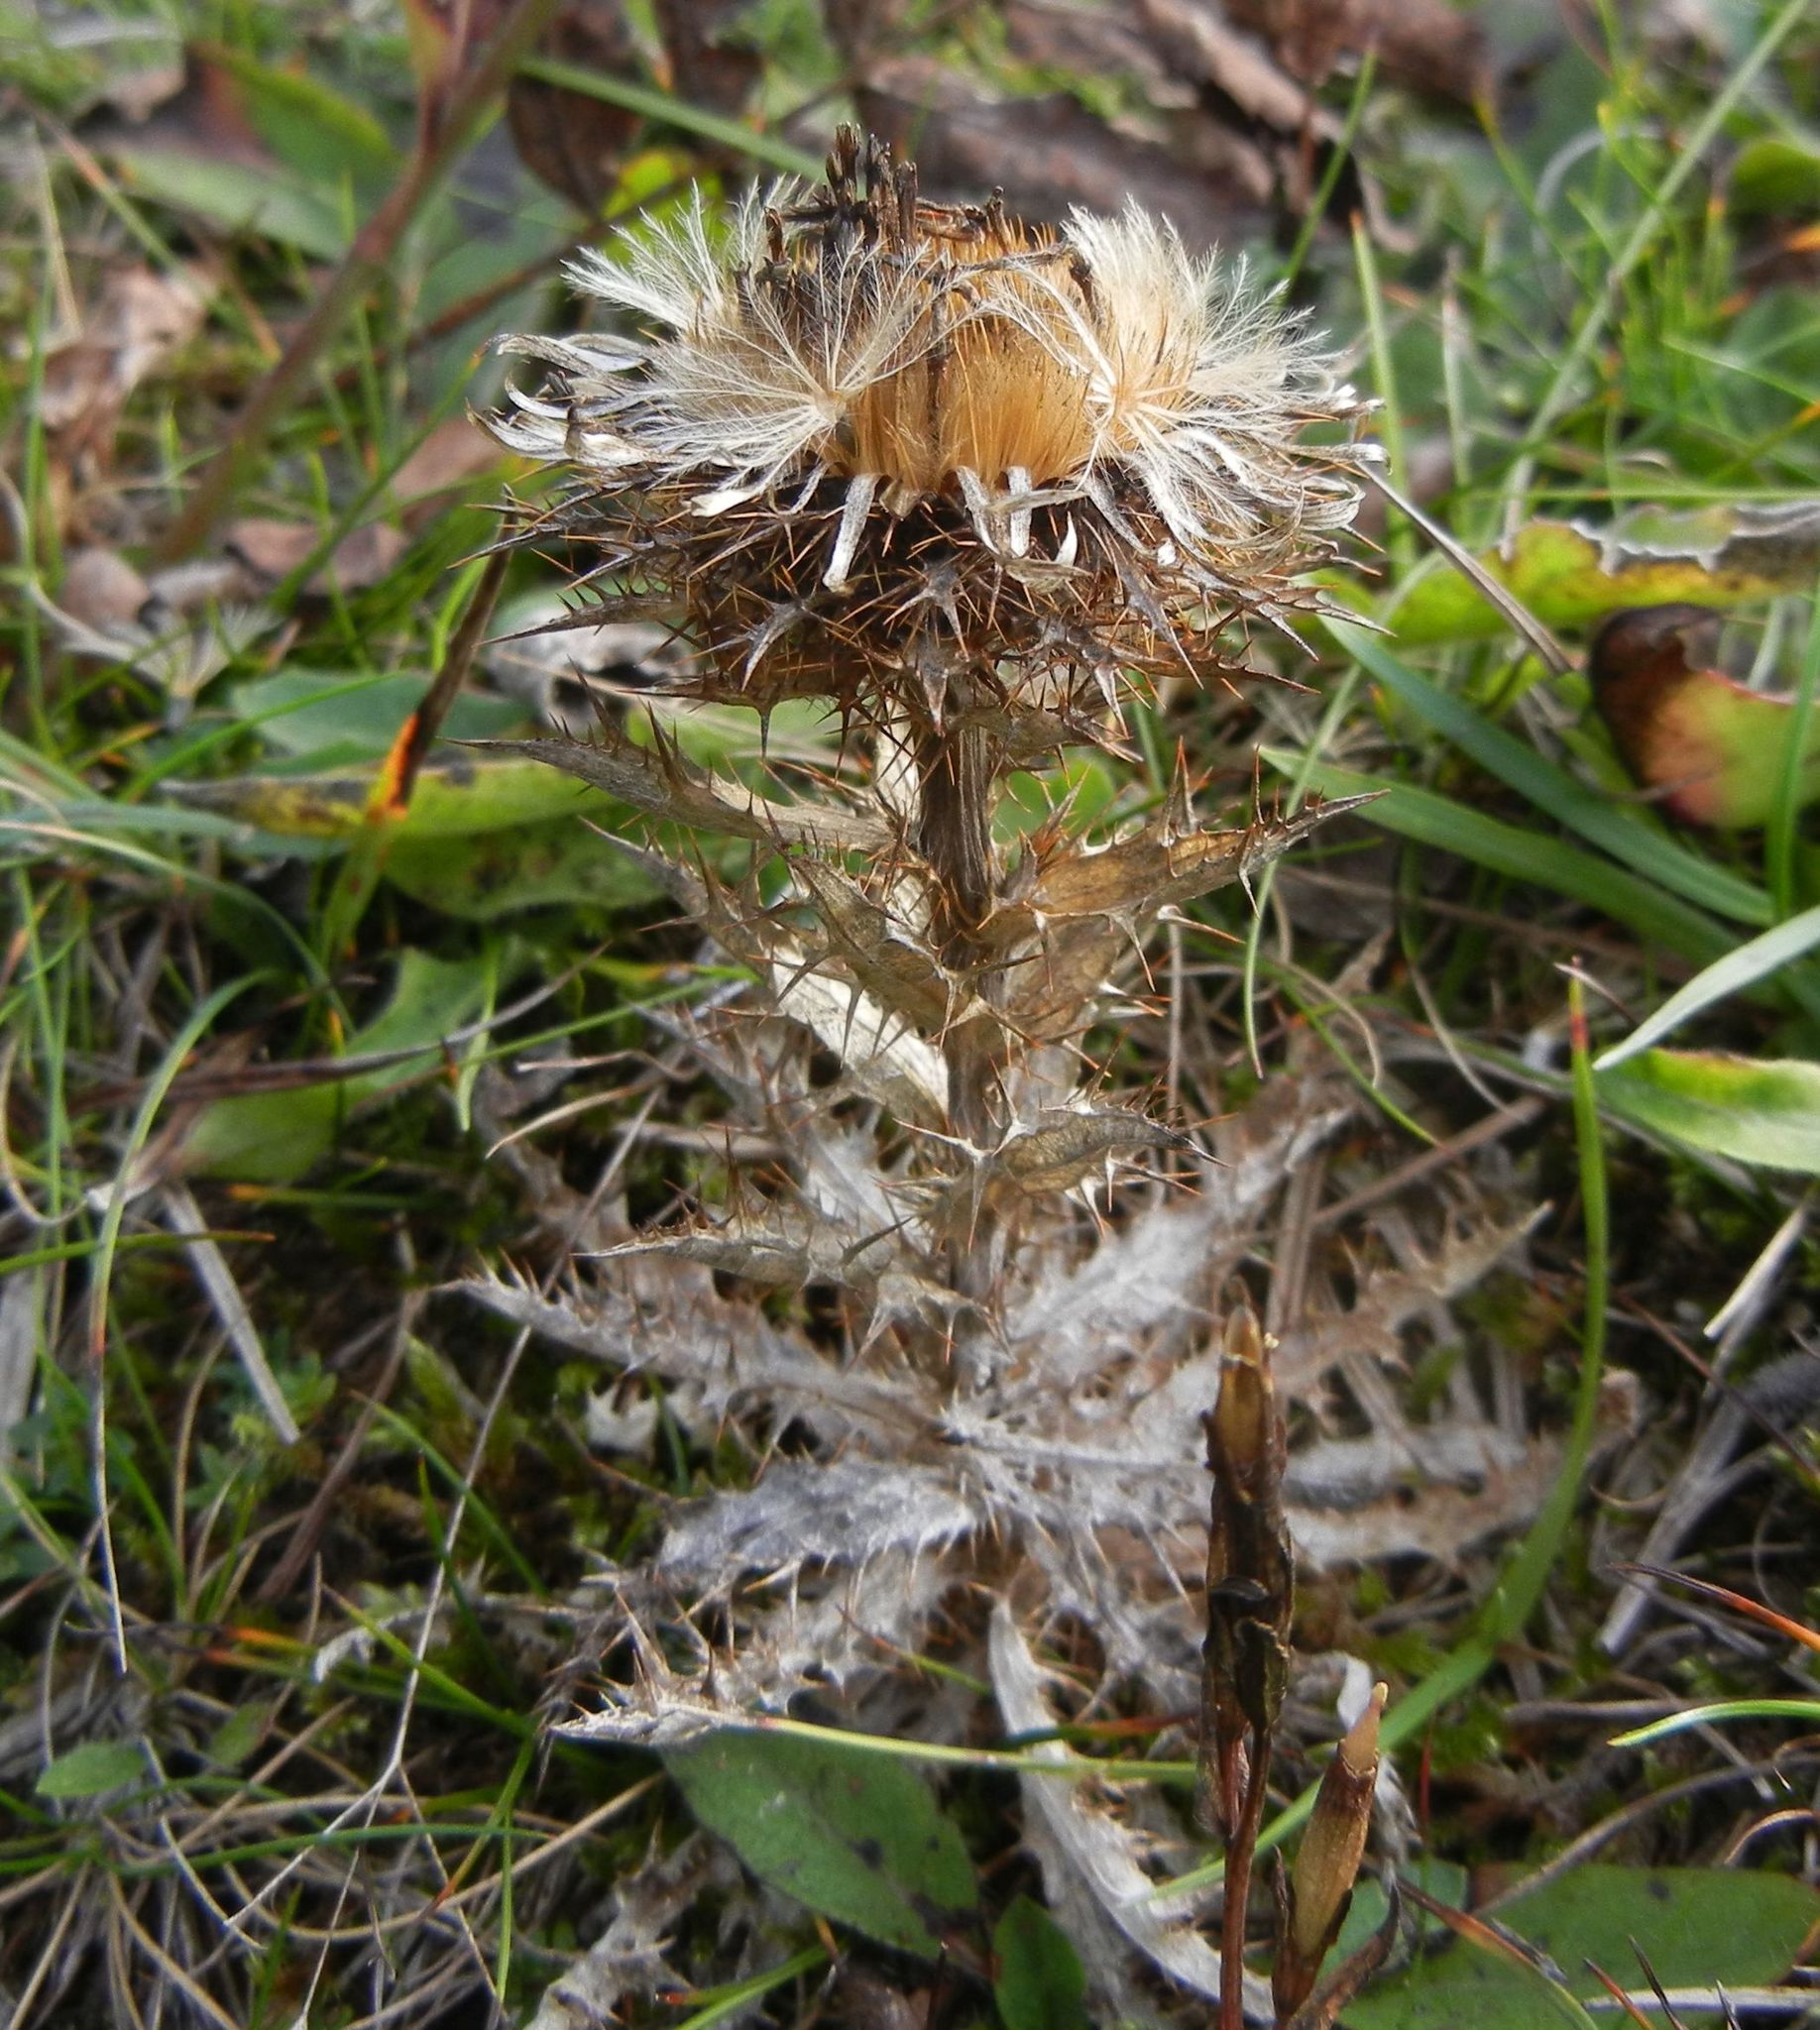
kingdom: Plantae
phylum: Tracheophyta
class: Magnoliopsida
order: Asterales
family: Asteraceae
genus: Carlina
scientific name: Carlina vulgaris
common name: Carline thistle
